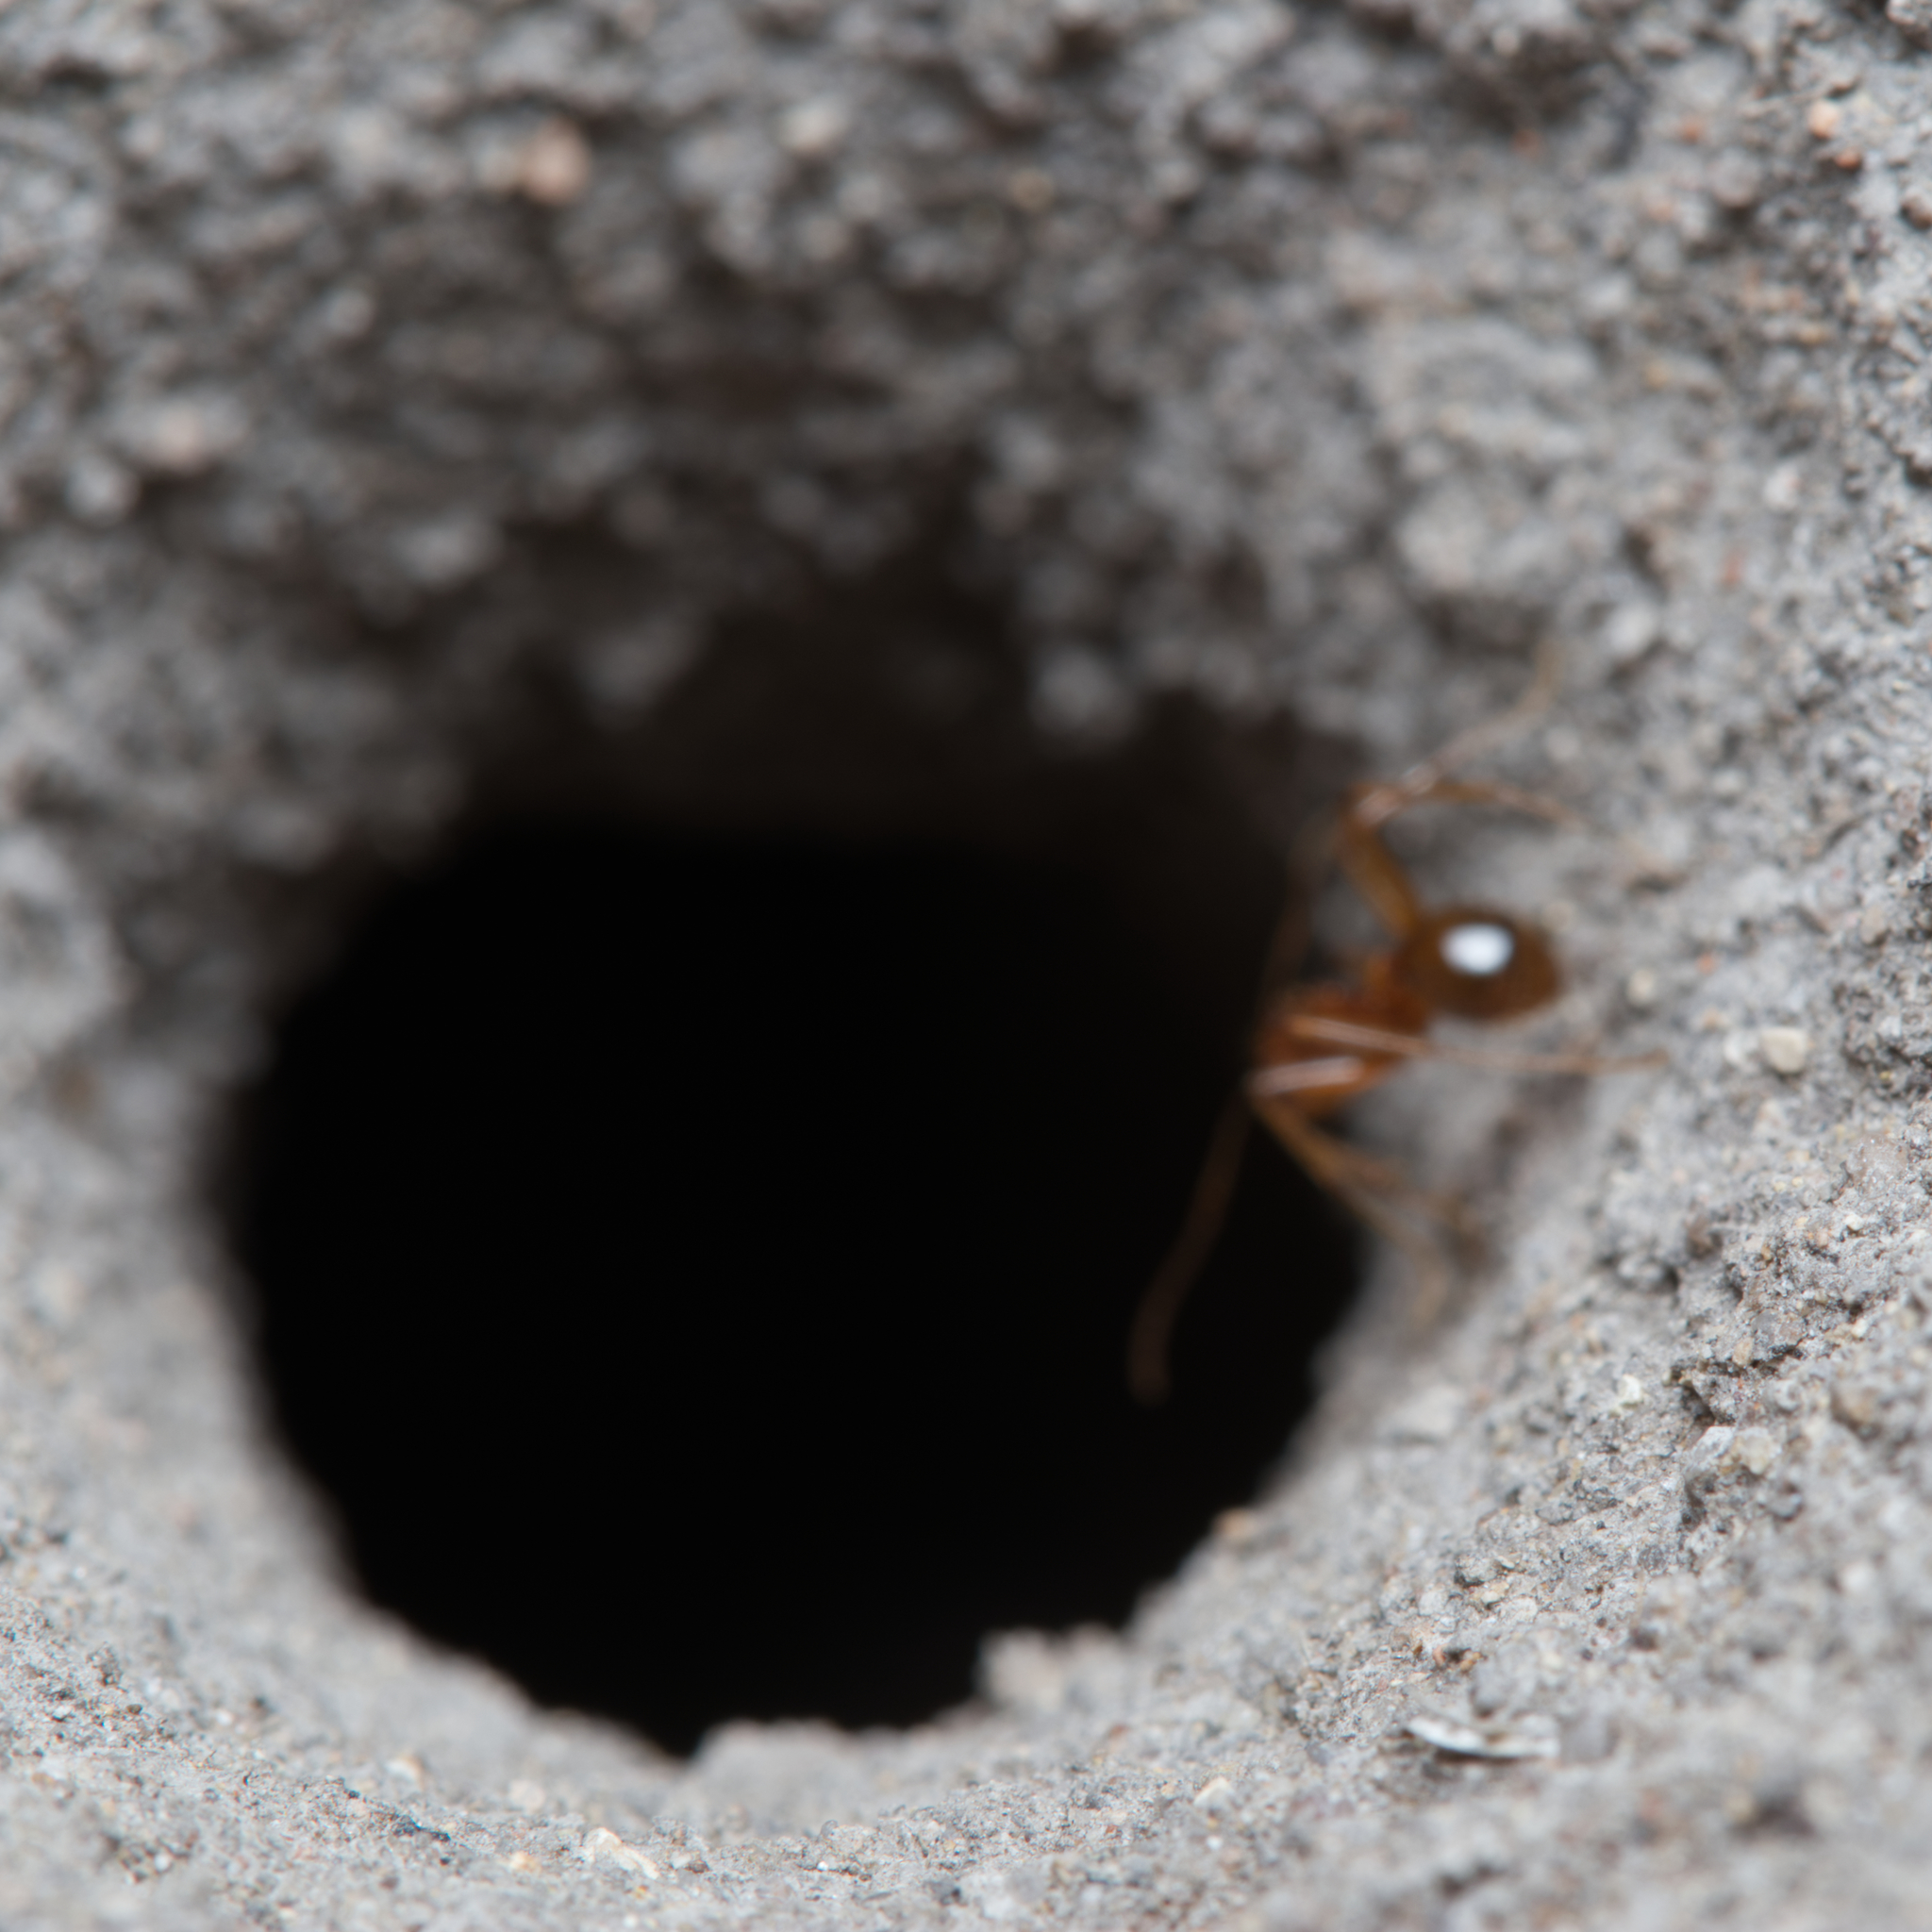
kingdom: Animalia
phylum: Arthropoda
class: Insecta
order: Hymenoptera
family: Formicidae
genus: Aphaenogaster
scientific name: Aphaenogaster barbara
